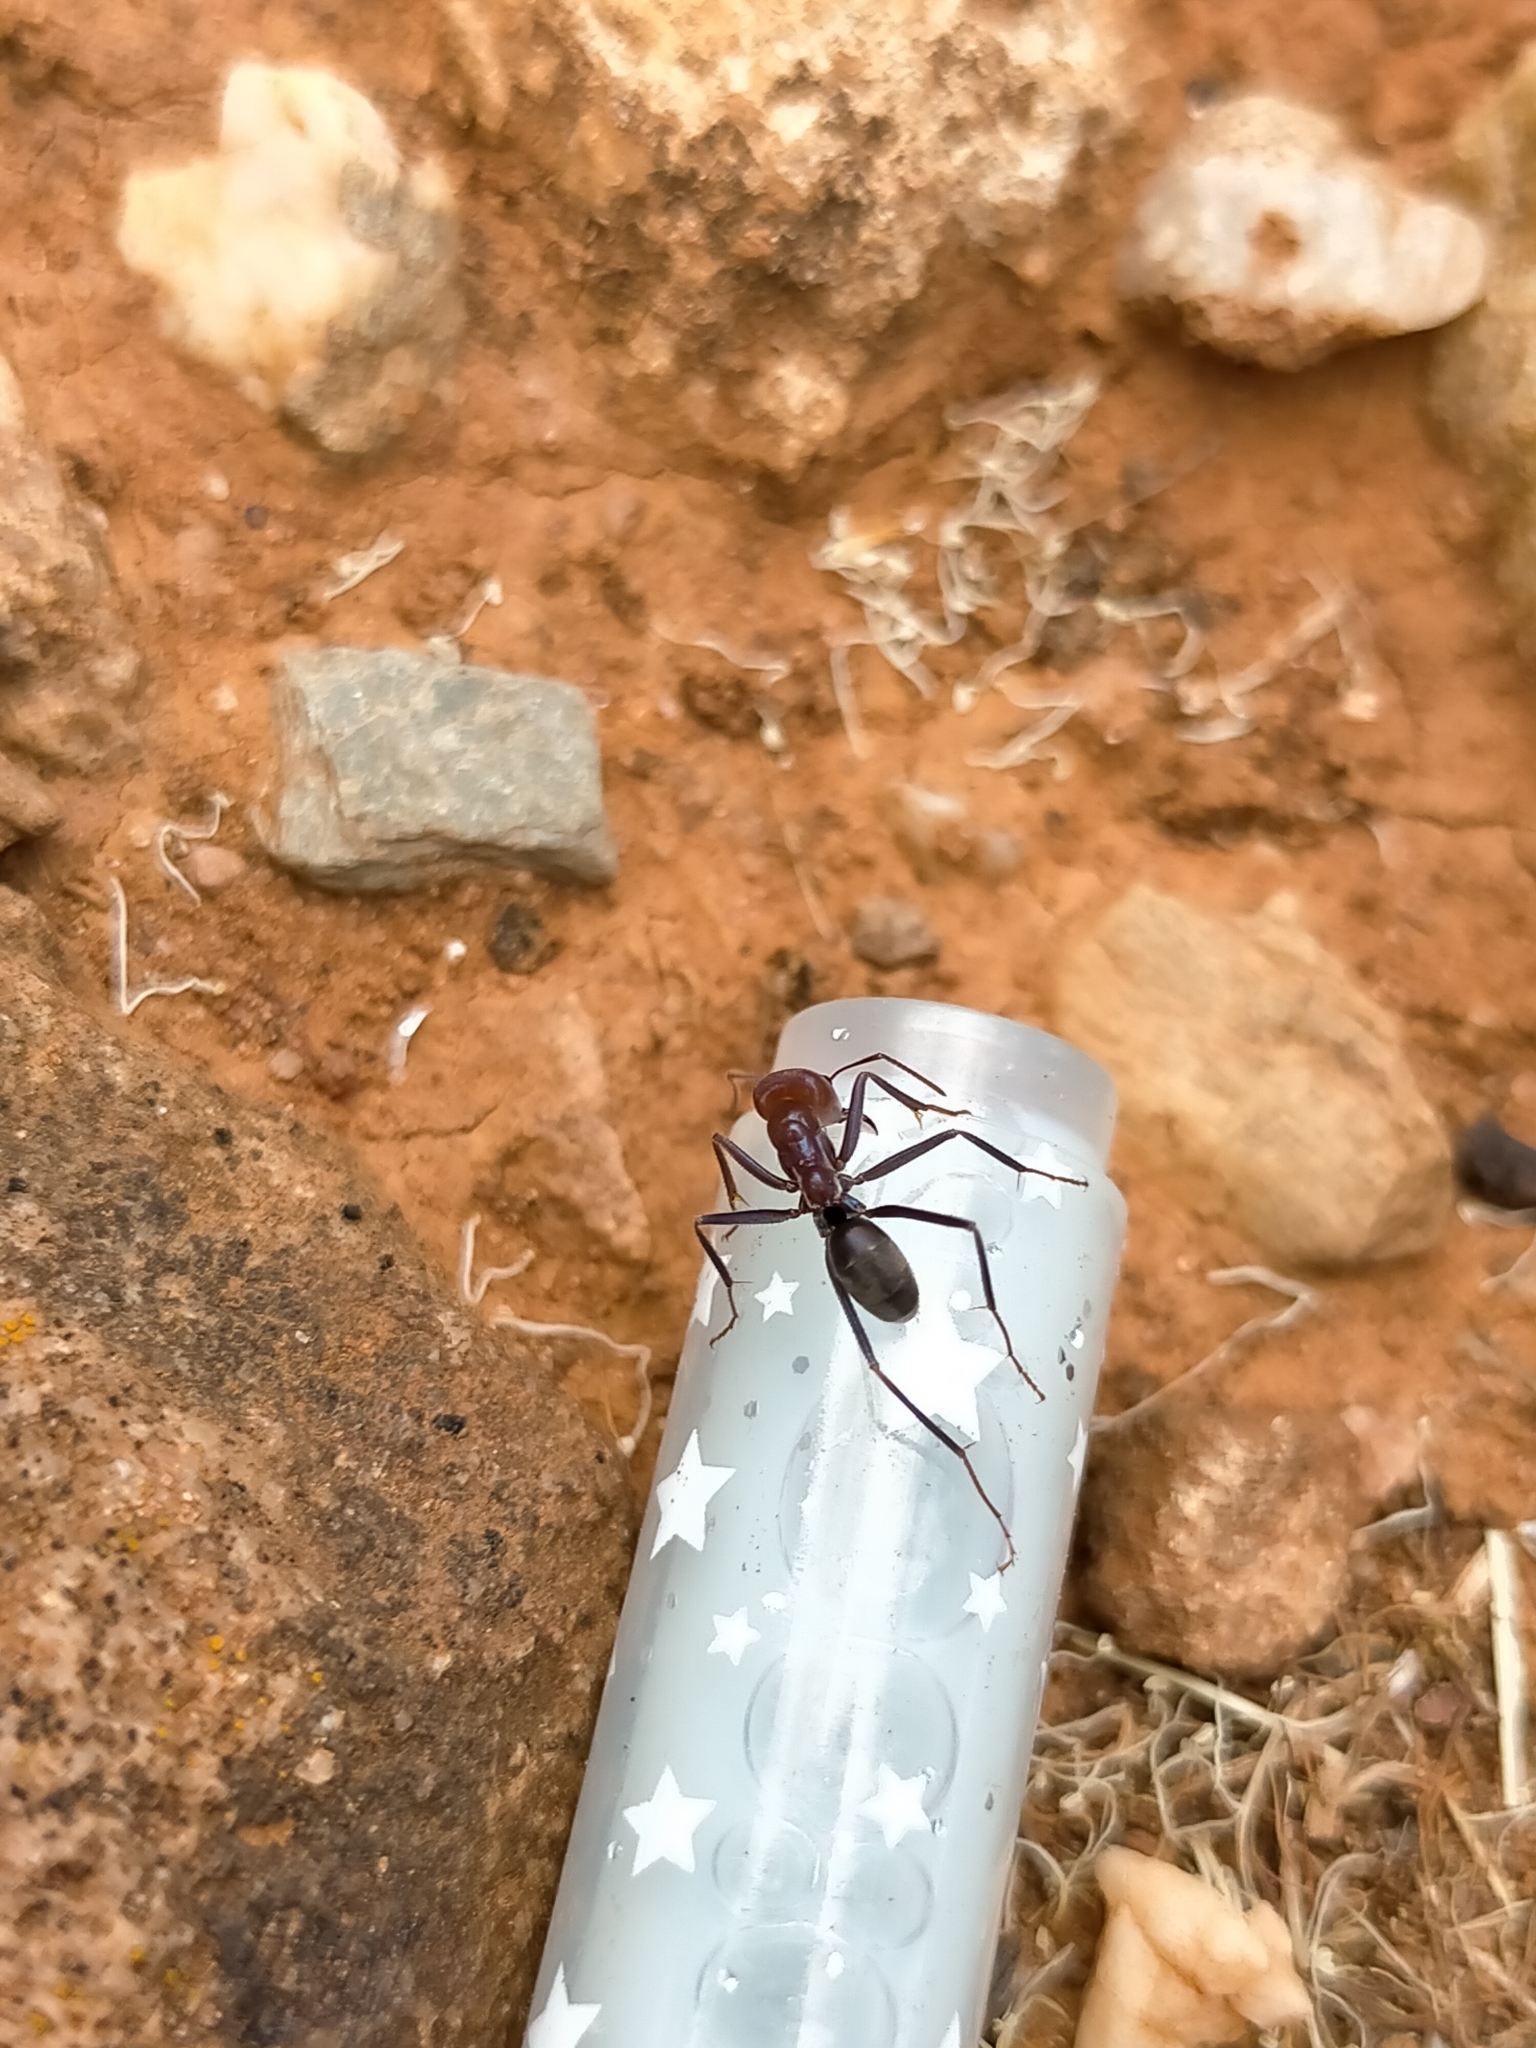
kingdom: Animalia
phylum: Arthropoda
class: Insecta
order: Hymenoptera
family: Formicidae
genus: Iridomyrmex
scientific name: Iridomyrmex purpureus
